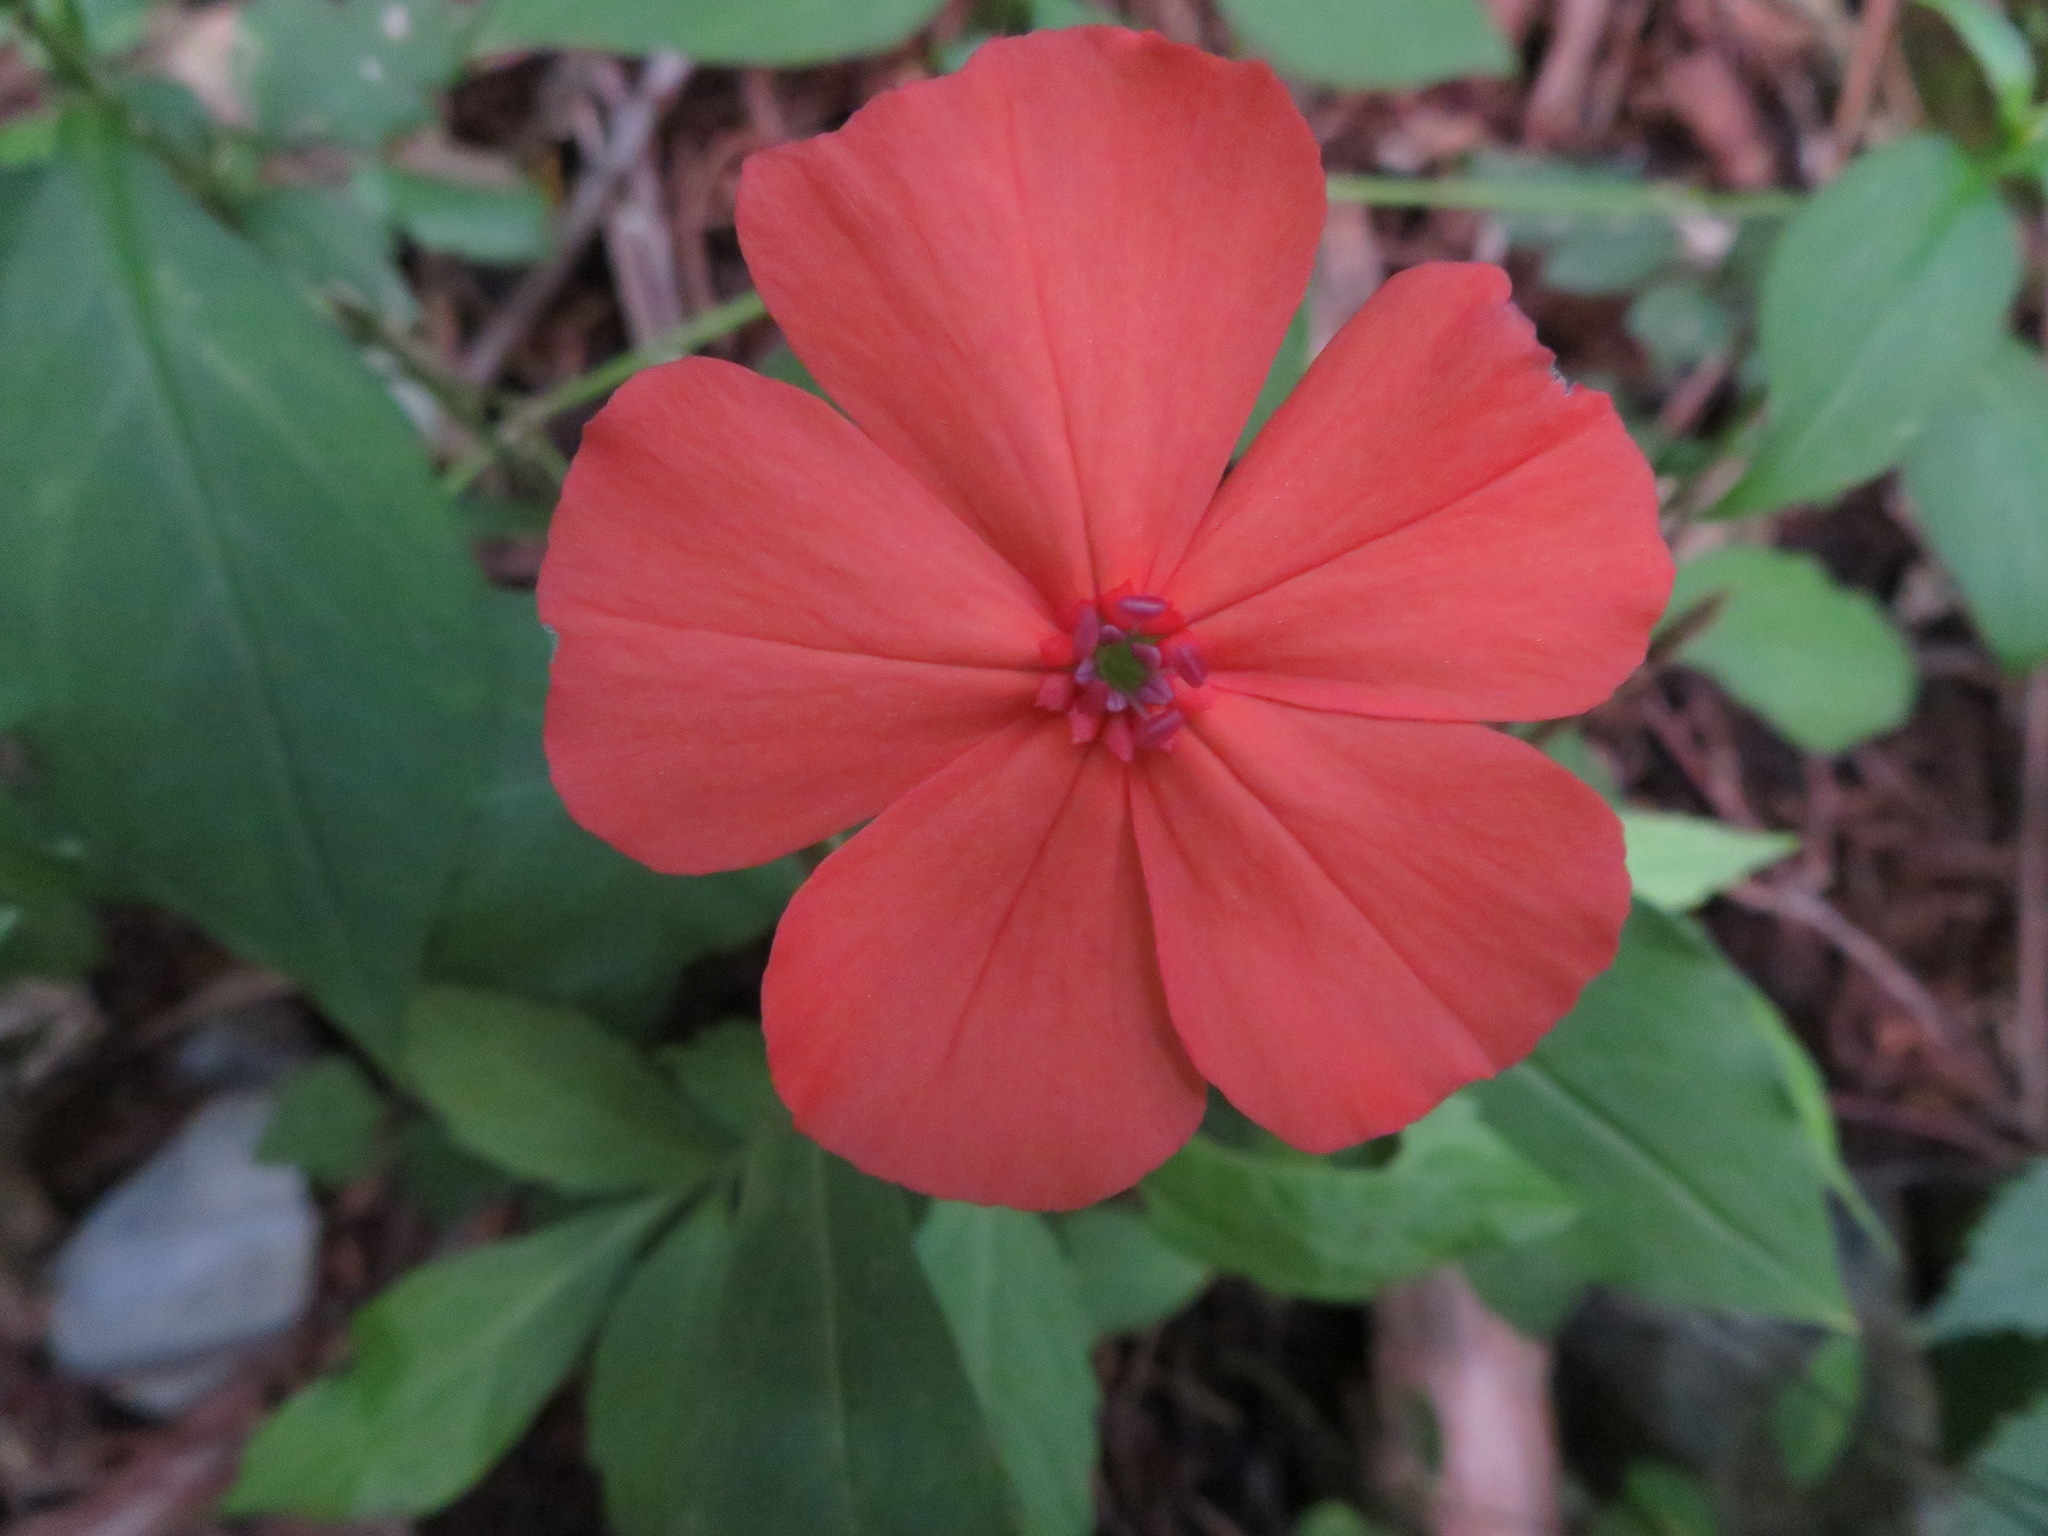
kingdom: Plantae
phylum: Tracheophyta
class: Magnoliopsida
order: Caryophyllales
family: Caryophyllaceae
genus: Silene
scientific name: Silene miqueliana
